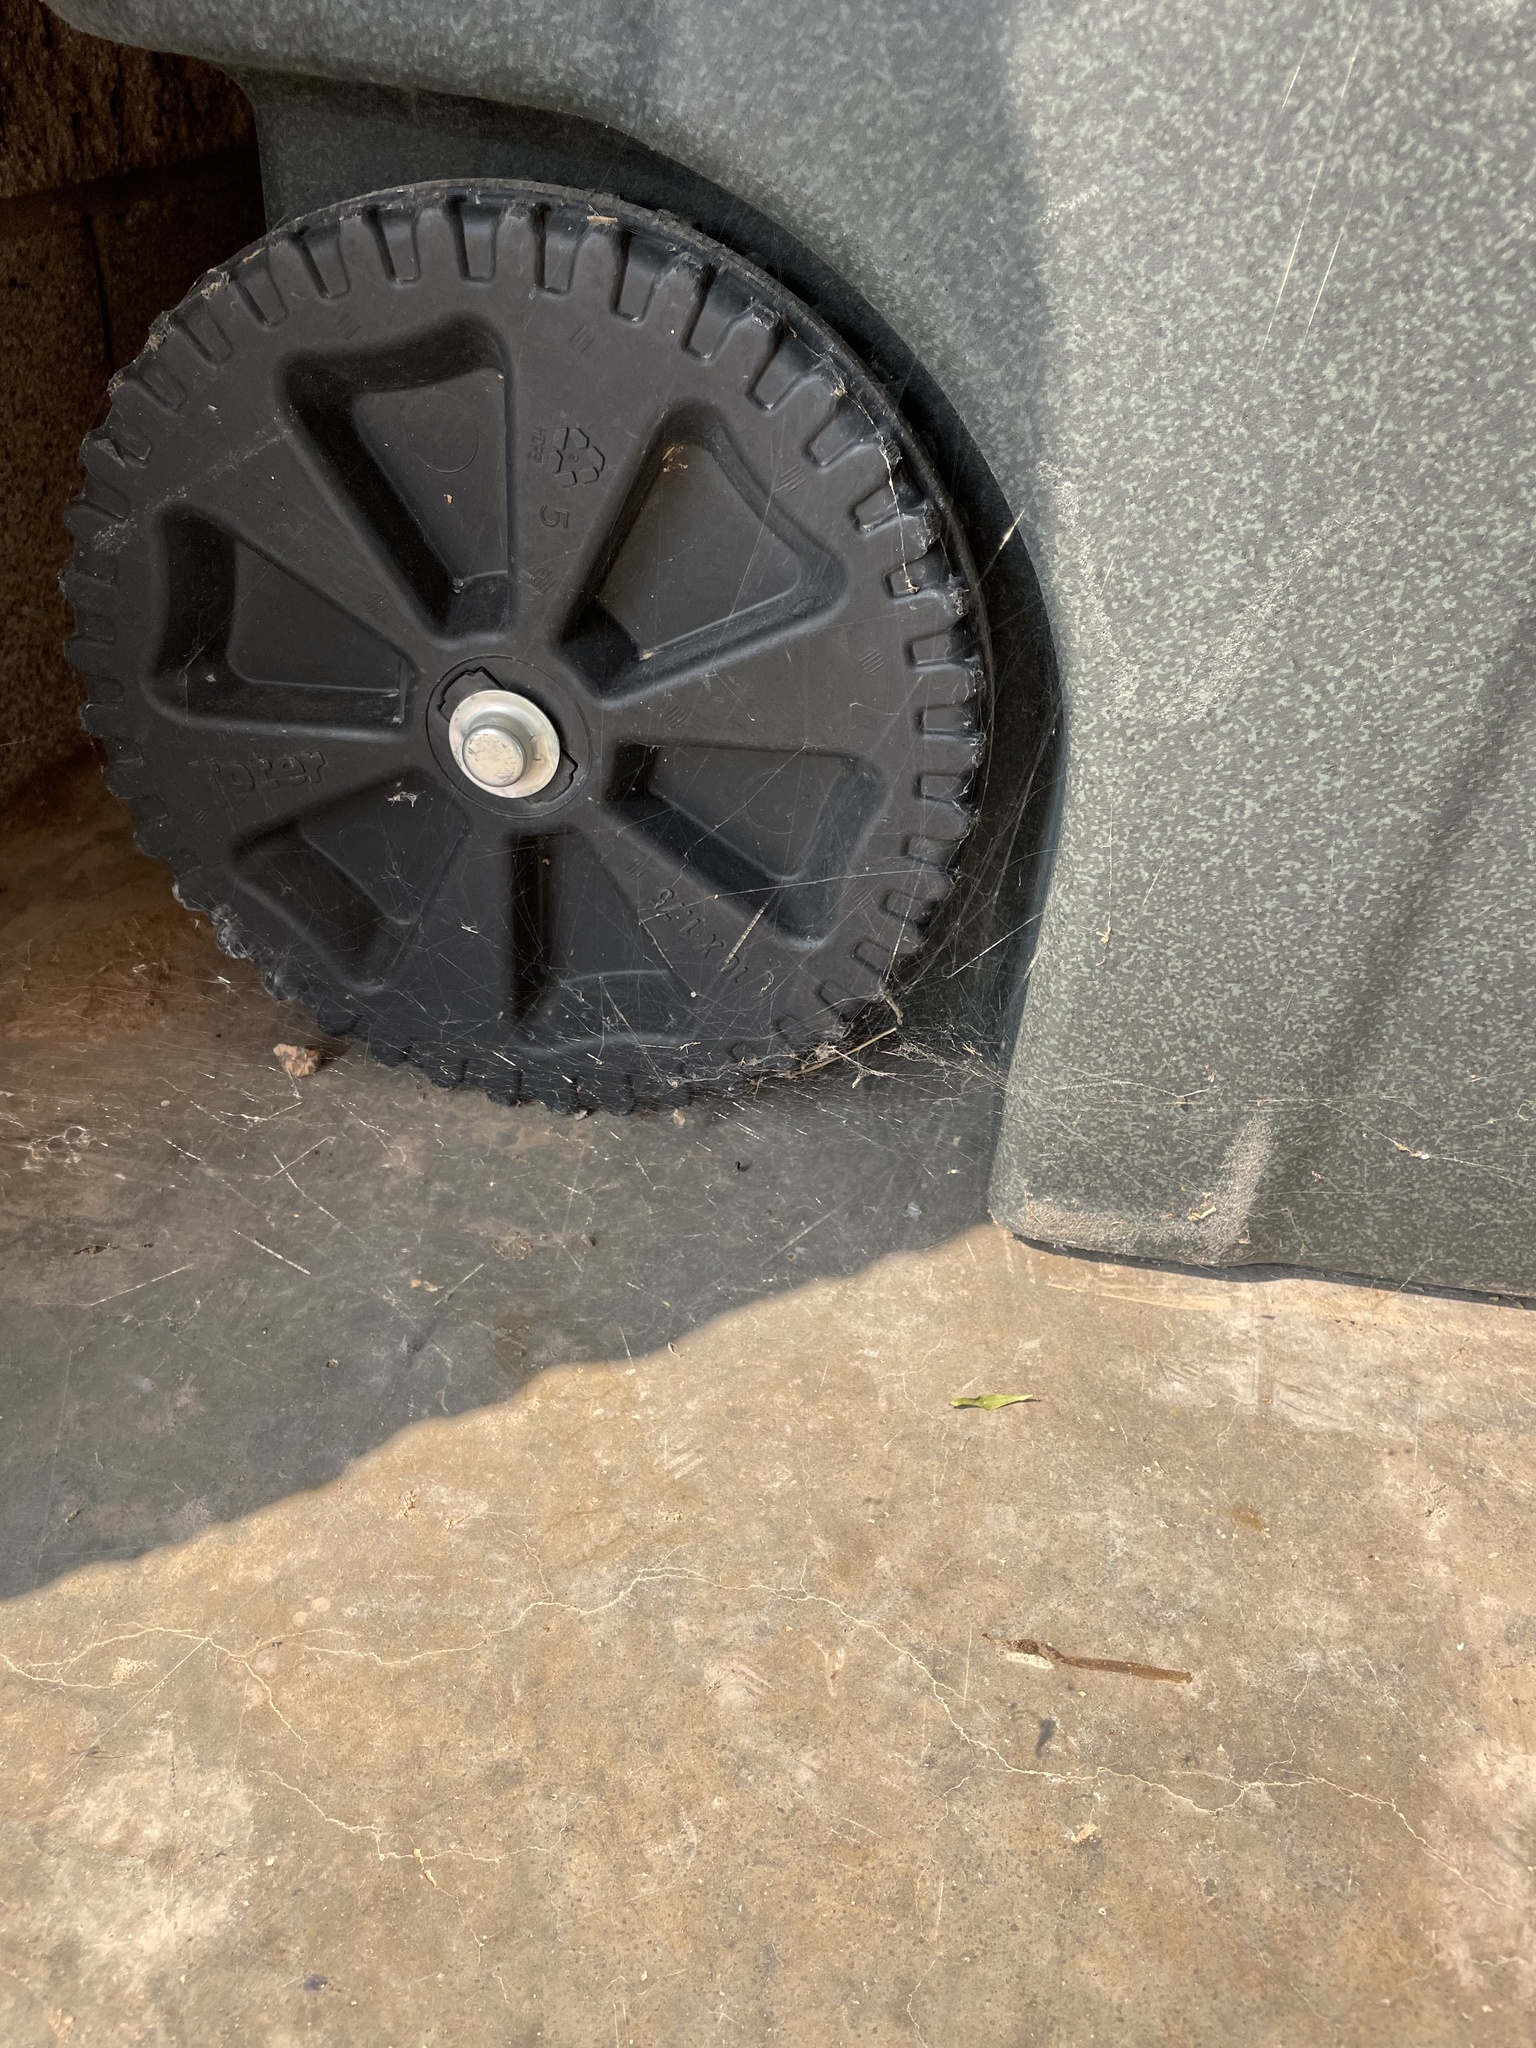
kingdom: Animalia
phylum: Arthropoda
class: Arachnida
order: Araneae
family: Theridiidae
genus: Latrodectus
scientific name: Latrodectus hesperus
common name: Western black widow
